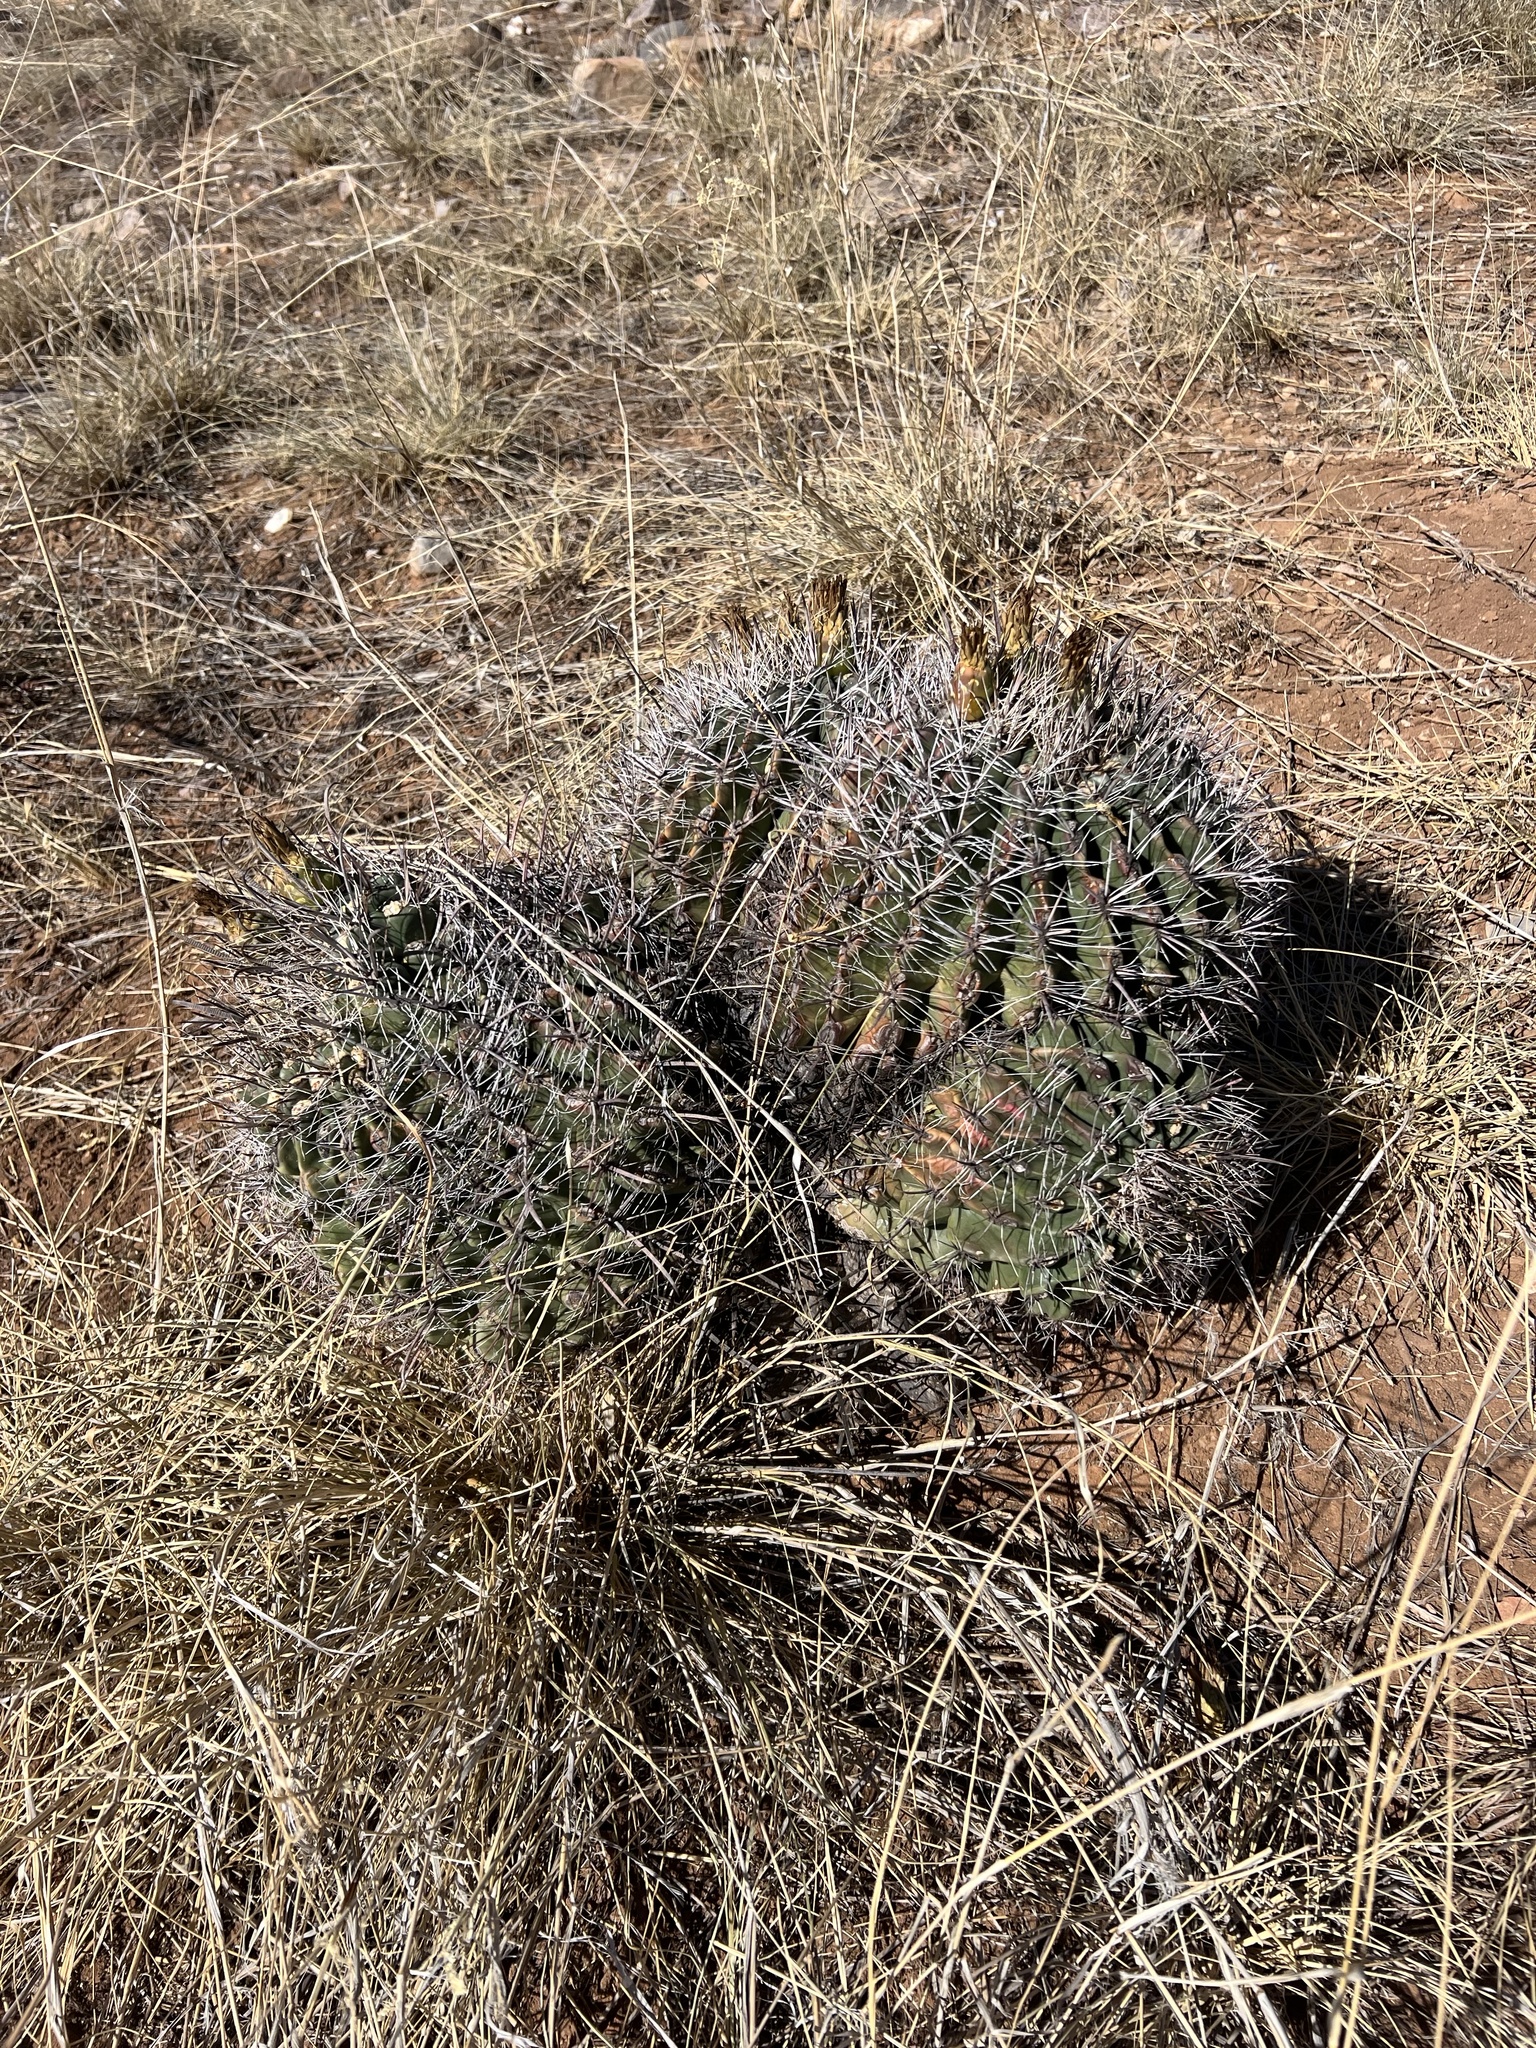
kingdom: Plantae
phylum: Tracheophyta
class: Magnoliopsida
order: Caryophyllales
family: Cactaceae
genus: Ferocactus
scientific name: Ferocactus wislizeni
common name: Candy barrel cactus
